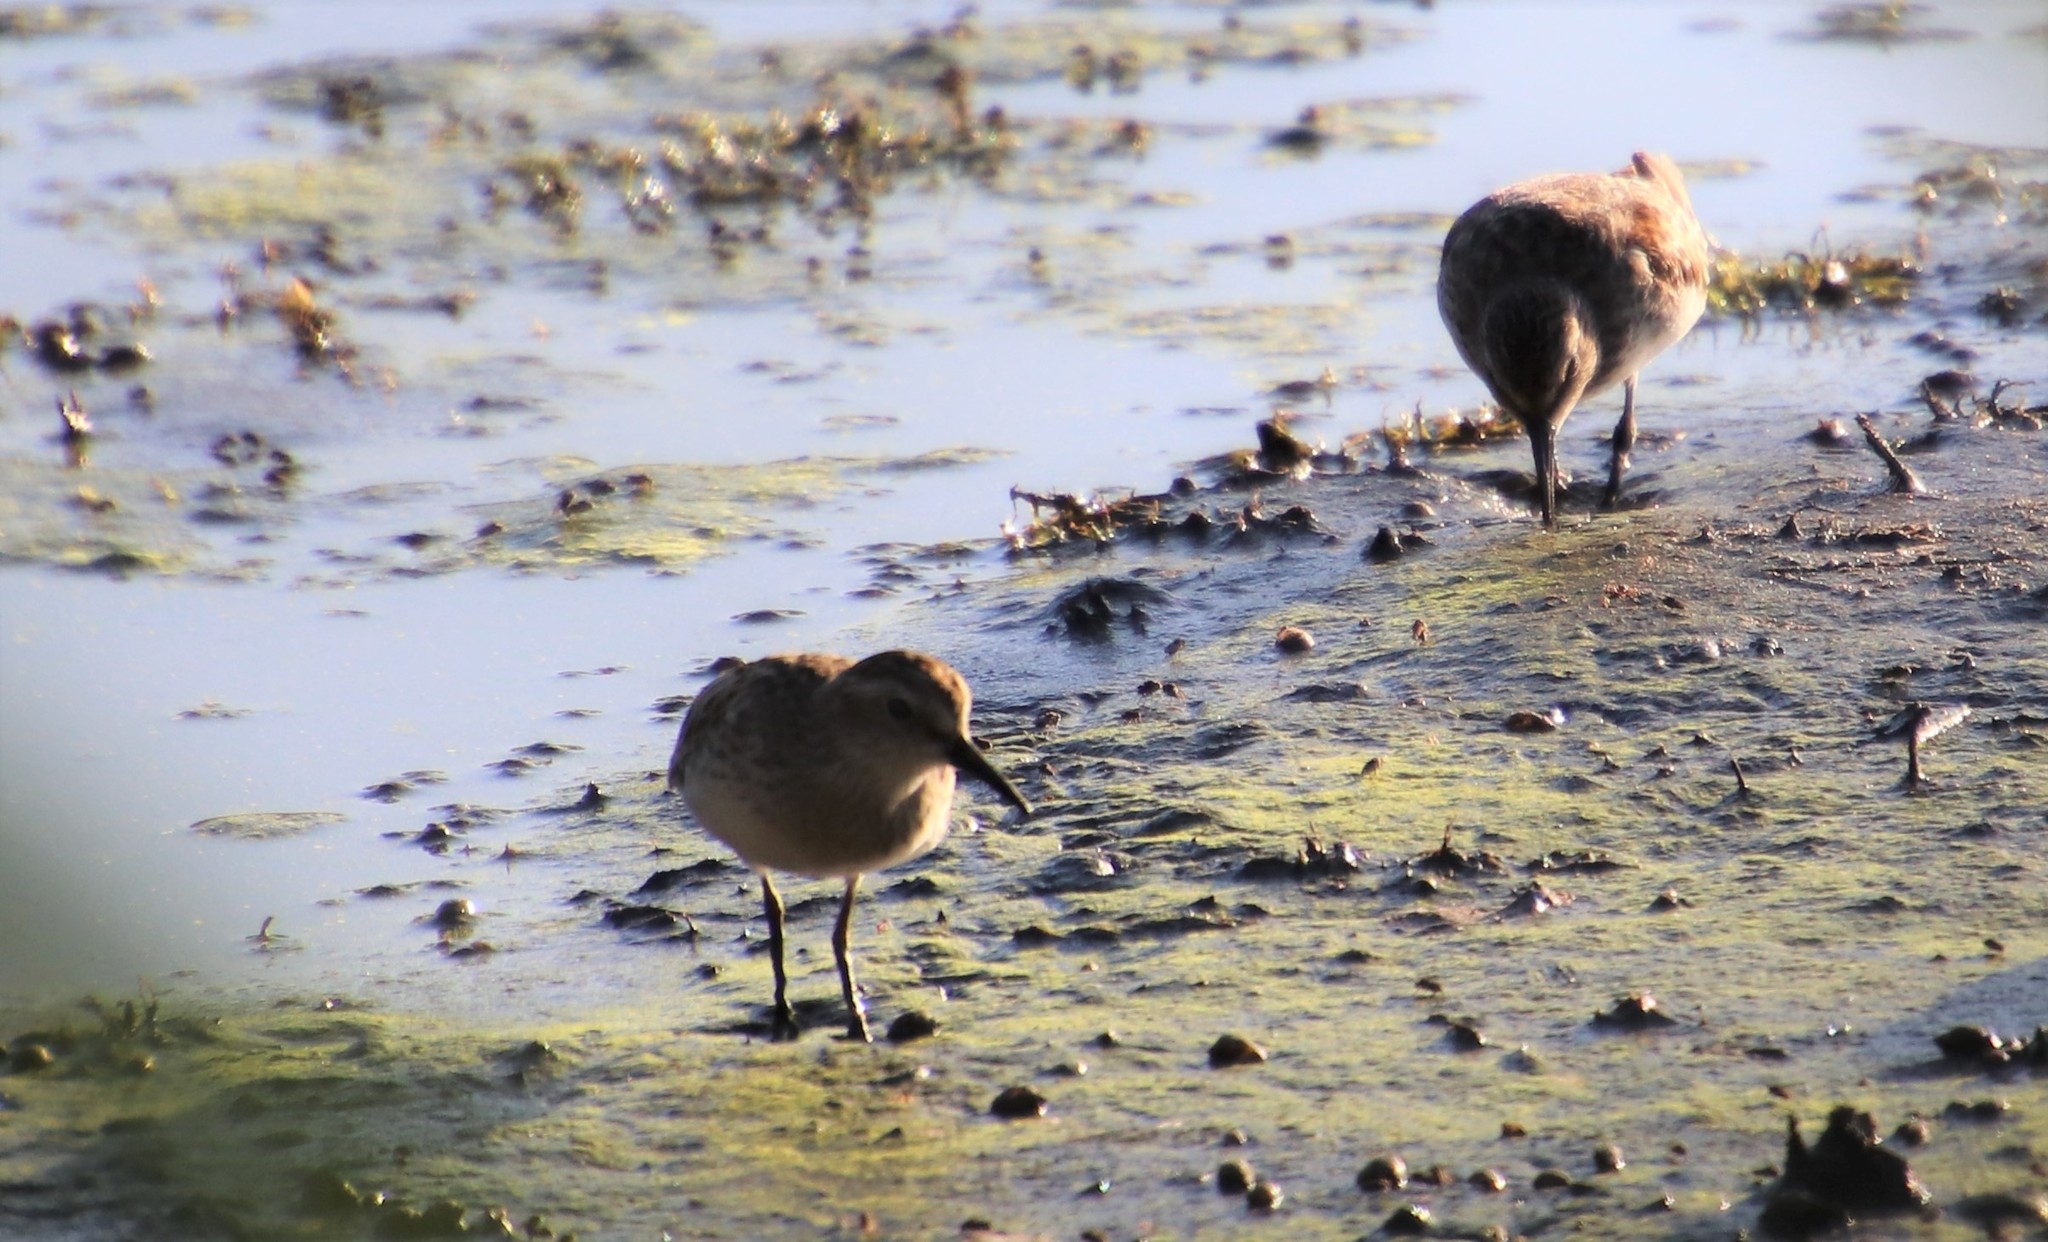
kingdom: Animalia
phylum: Chordata
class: Aves
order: Charadriiformes
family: Scolopacidae
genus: Calidris
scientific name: Calidris minutilla
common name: Least sandpiper
